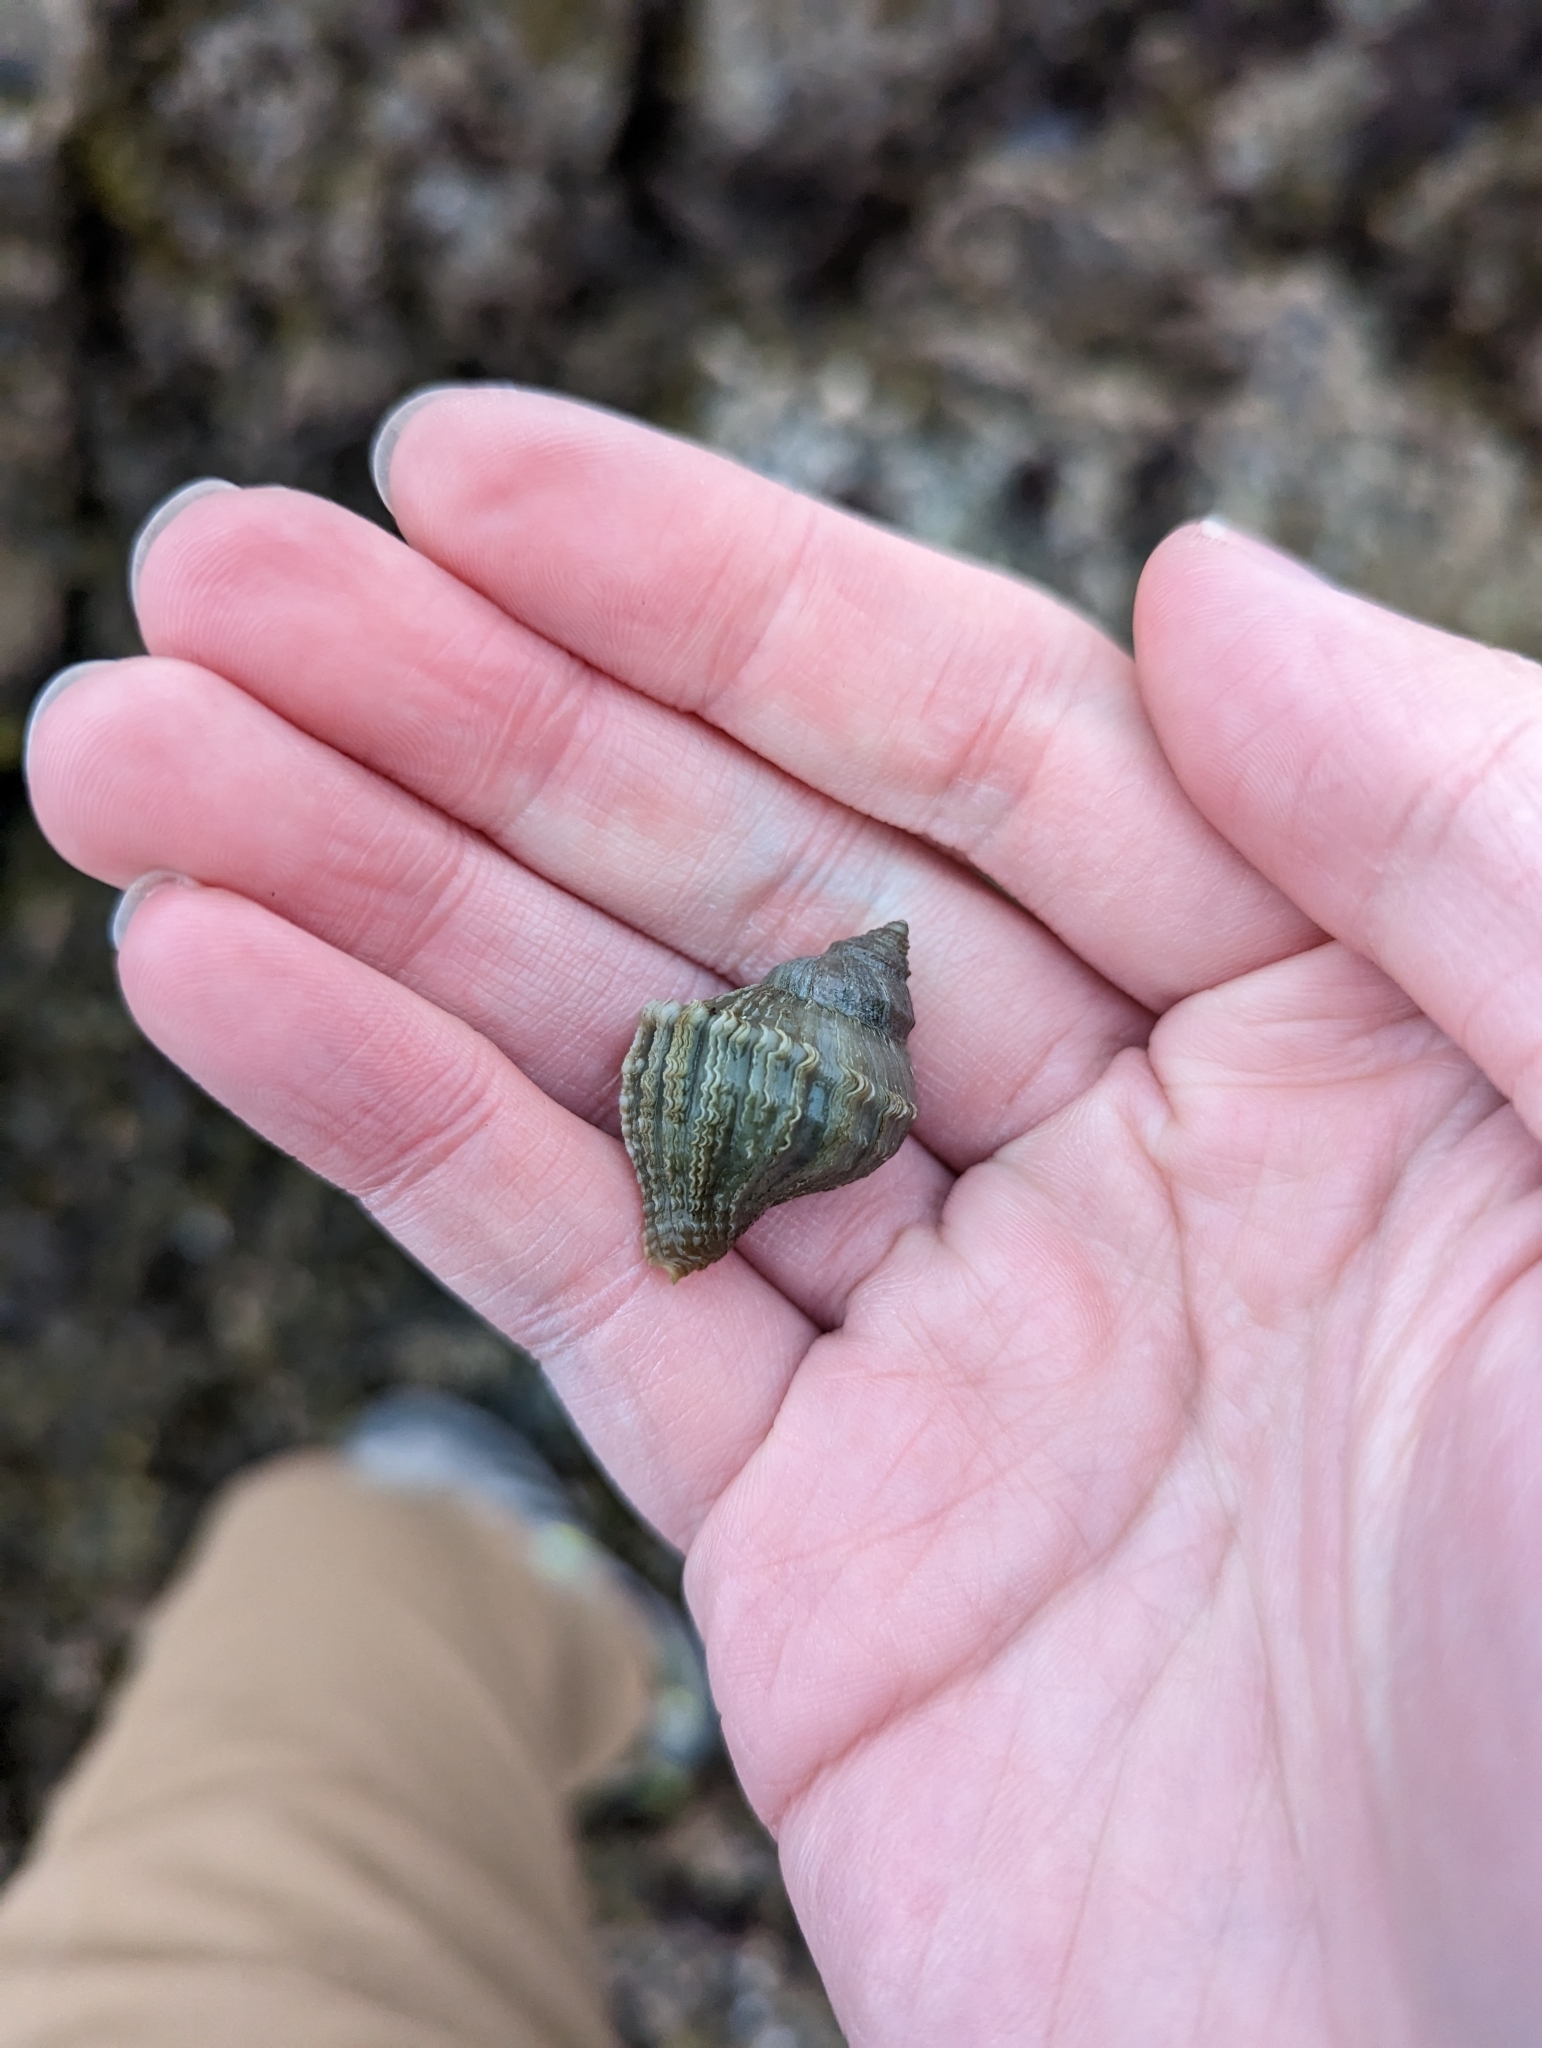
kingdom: Animalia
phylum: Mollusca
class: Gastropoda
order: Neogastropoda
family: Muricidae
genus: Nucella
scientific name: Nucella lamellosa
